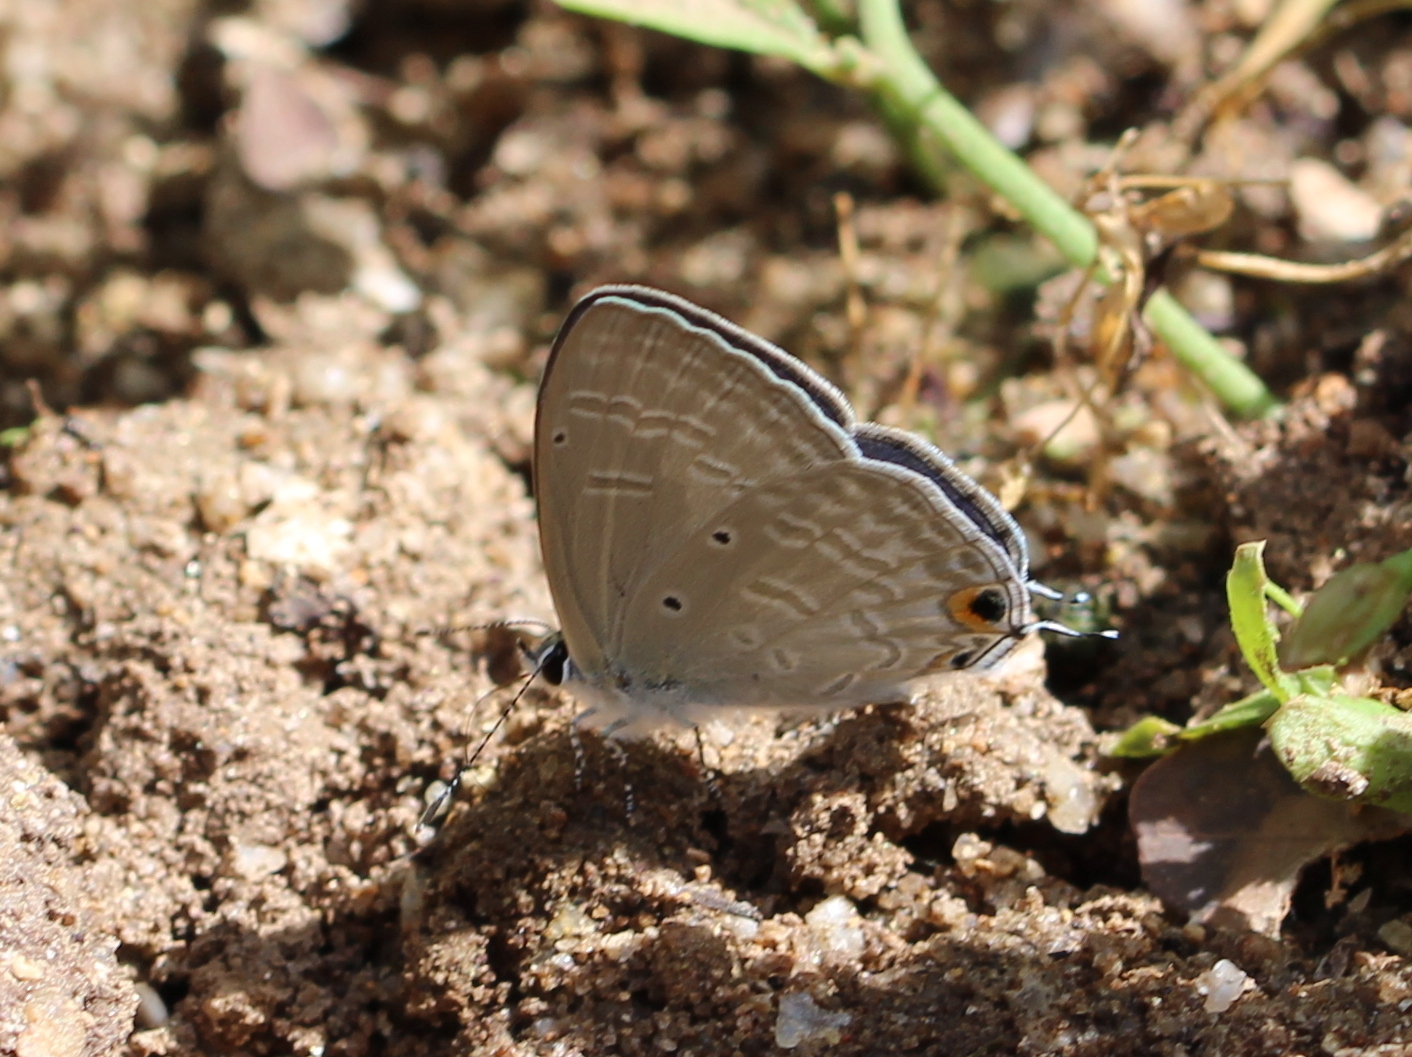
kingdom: Animalia
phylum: Arthropoda
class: Insecta
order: Lepidoptera
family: Lycaenidae
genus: Catochrysops
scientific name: Catochrysops strabo
